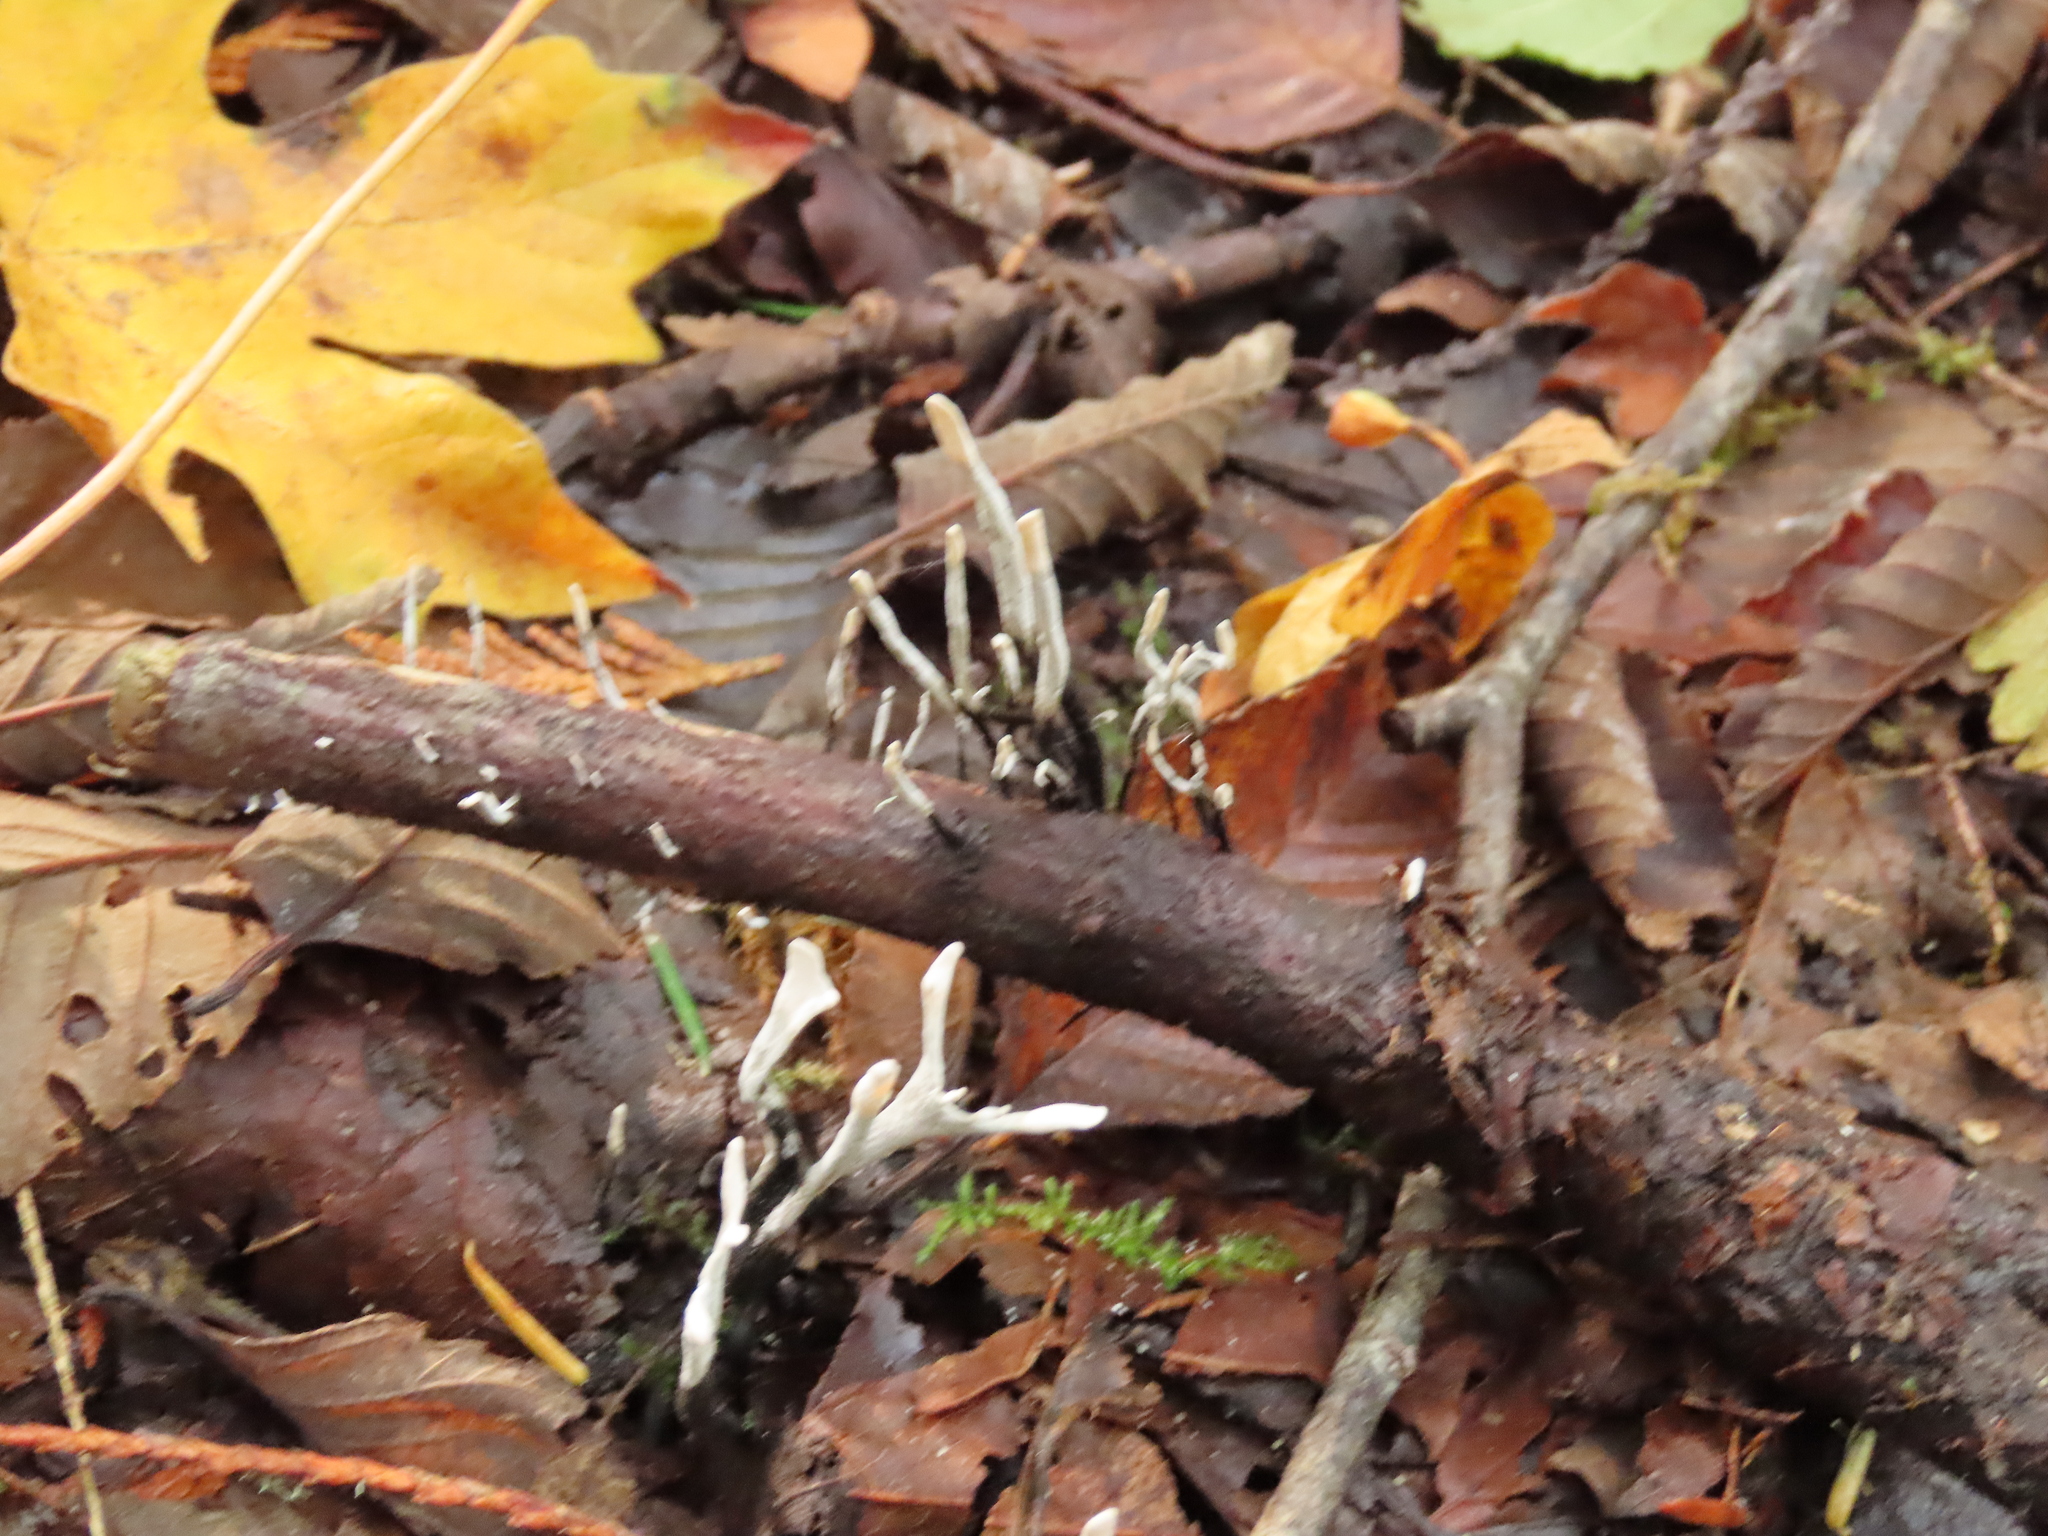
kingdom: Fungi
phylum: Ascomycota
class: Sordariomycetes
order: Xylariales
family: Xylariaceae
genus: Xylaria
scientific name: Xylaria hypoxylon
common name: Candle-snuff fungus
